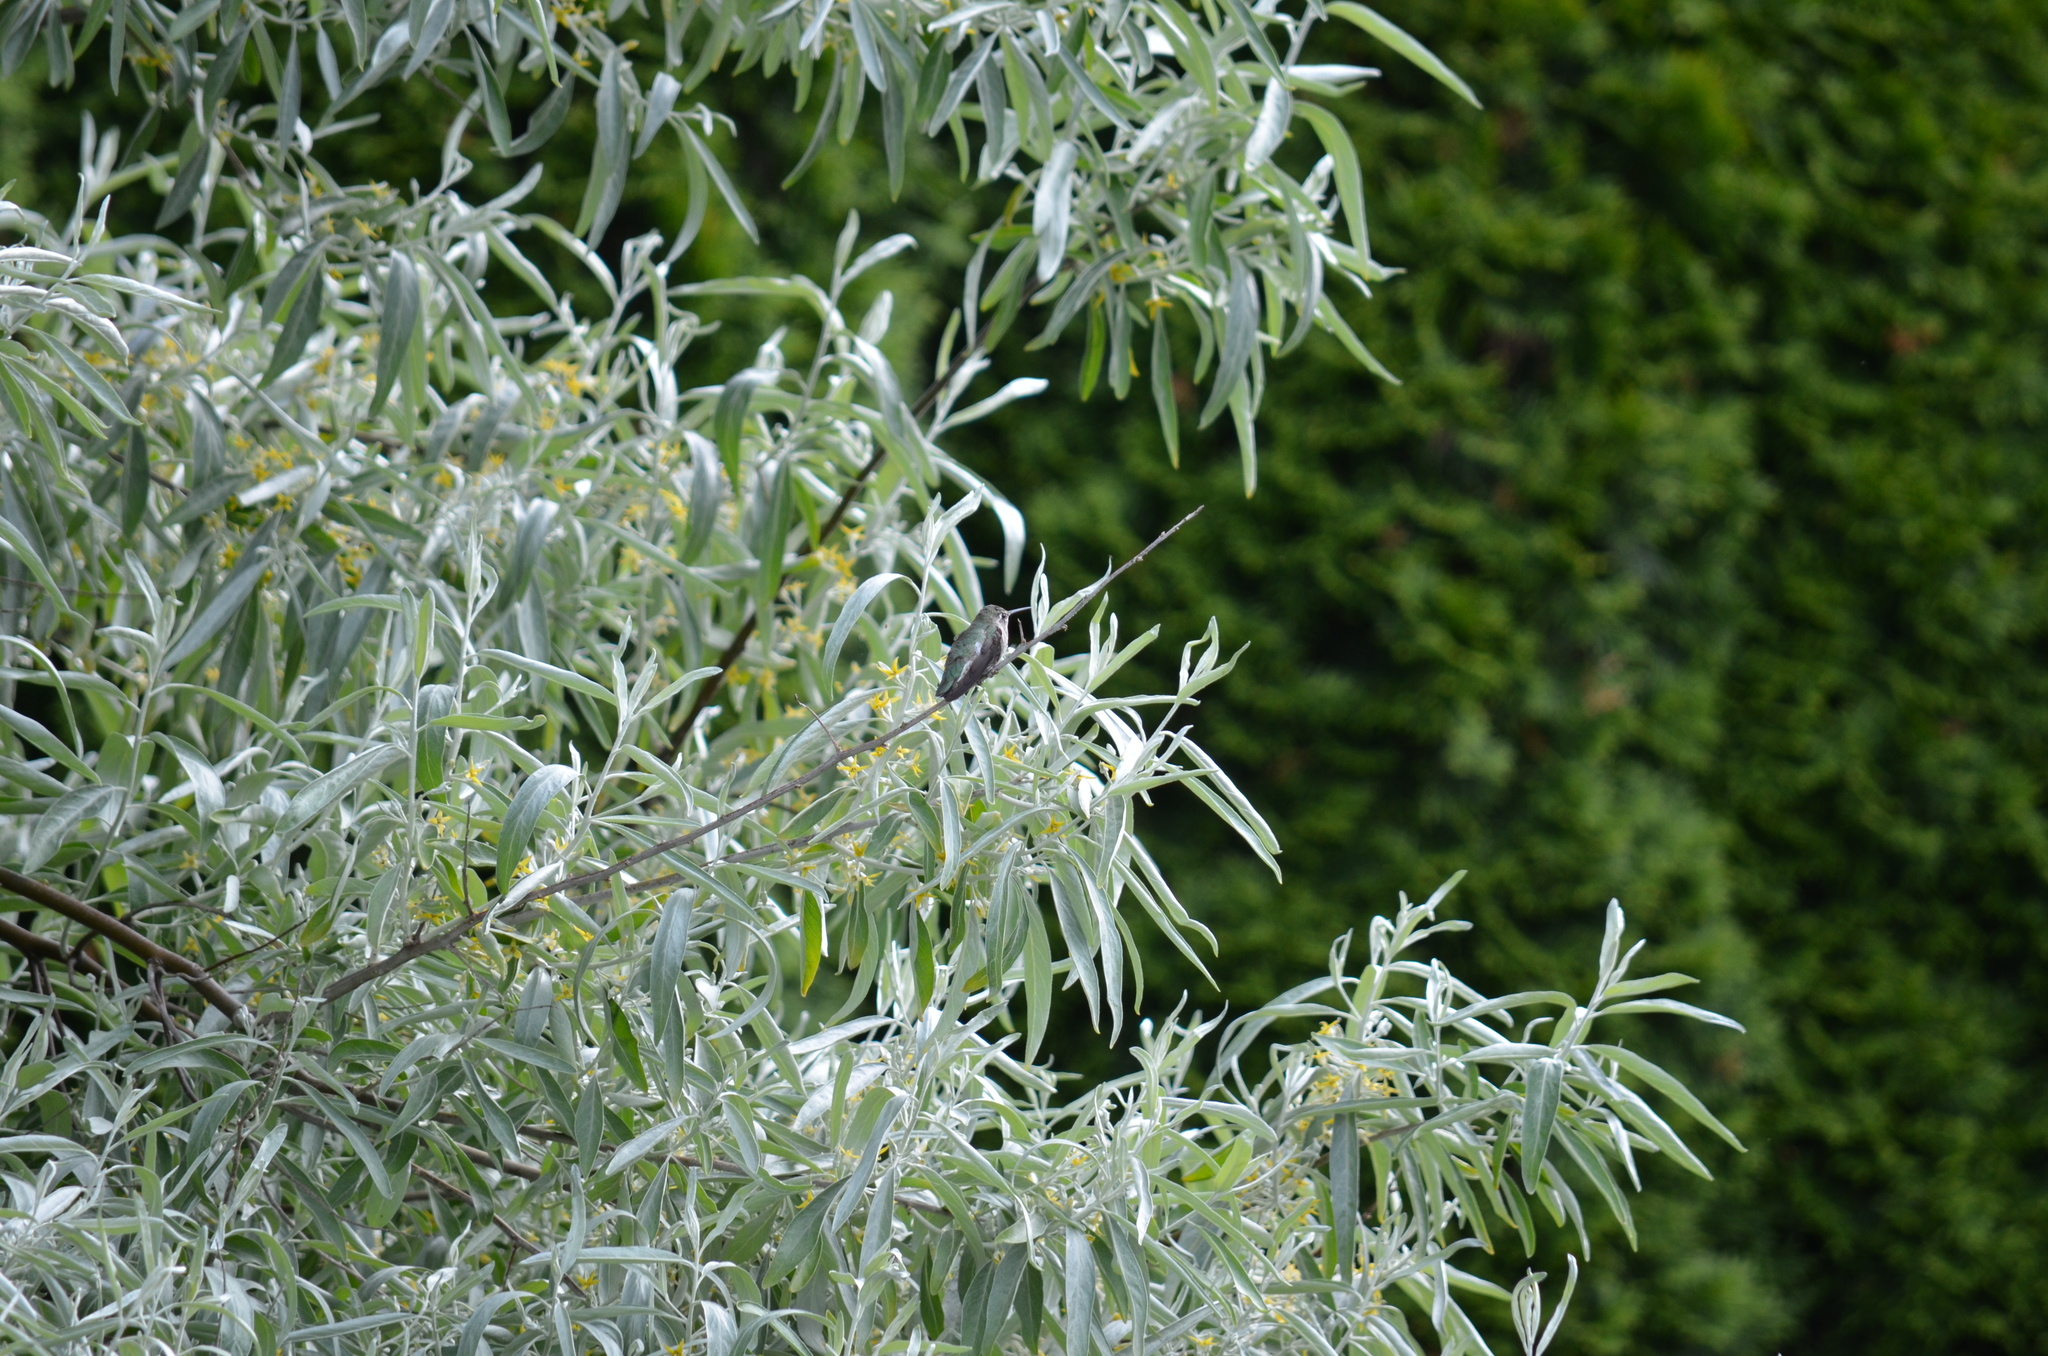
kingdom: Animalia
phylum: Chordata
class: Aves
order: Apodiformes
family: Trochilidae
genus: Calypte
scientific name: Calypte anna
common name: Anna's hummingbird
